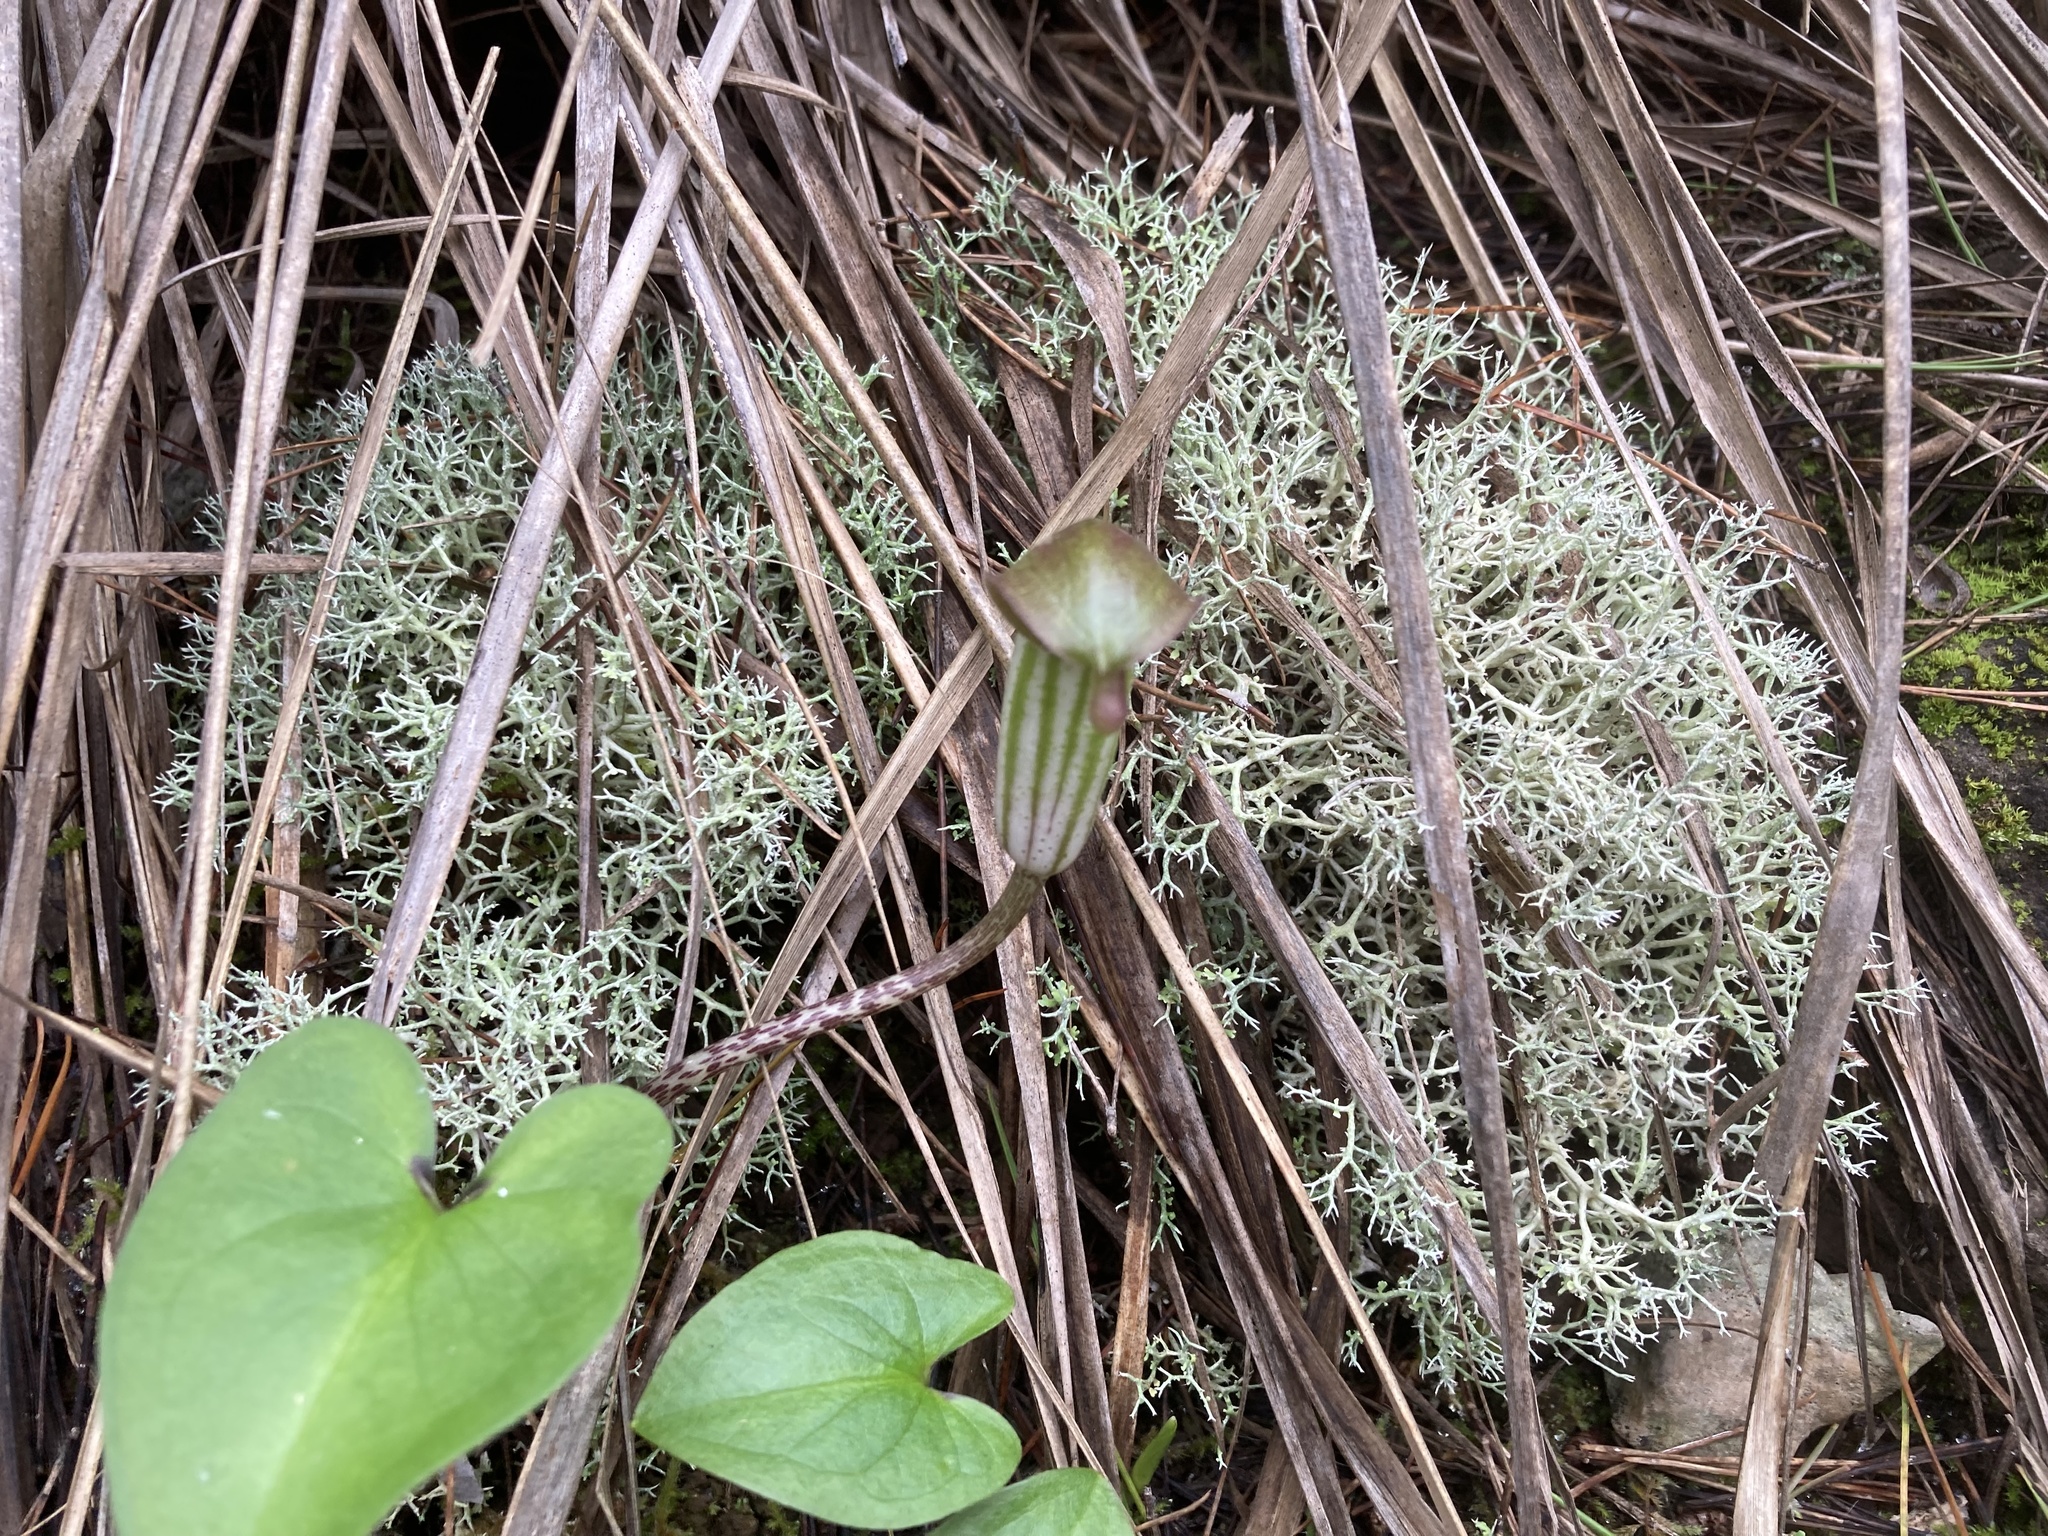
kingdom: Fungi
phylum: Ascomycota
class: Lecanoromycetes
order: Lecanorales
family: Cladoniaceae
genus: Cladonia
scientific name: Cladonia rangiformis
